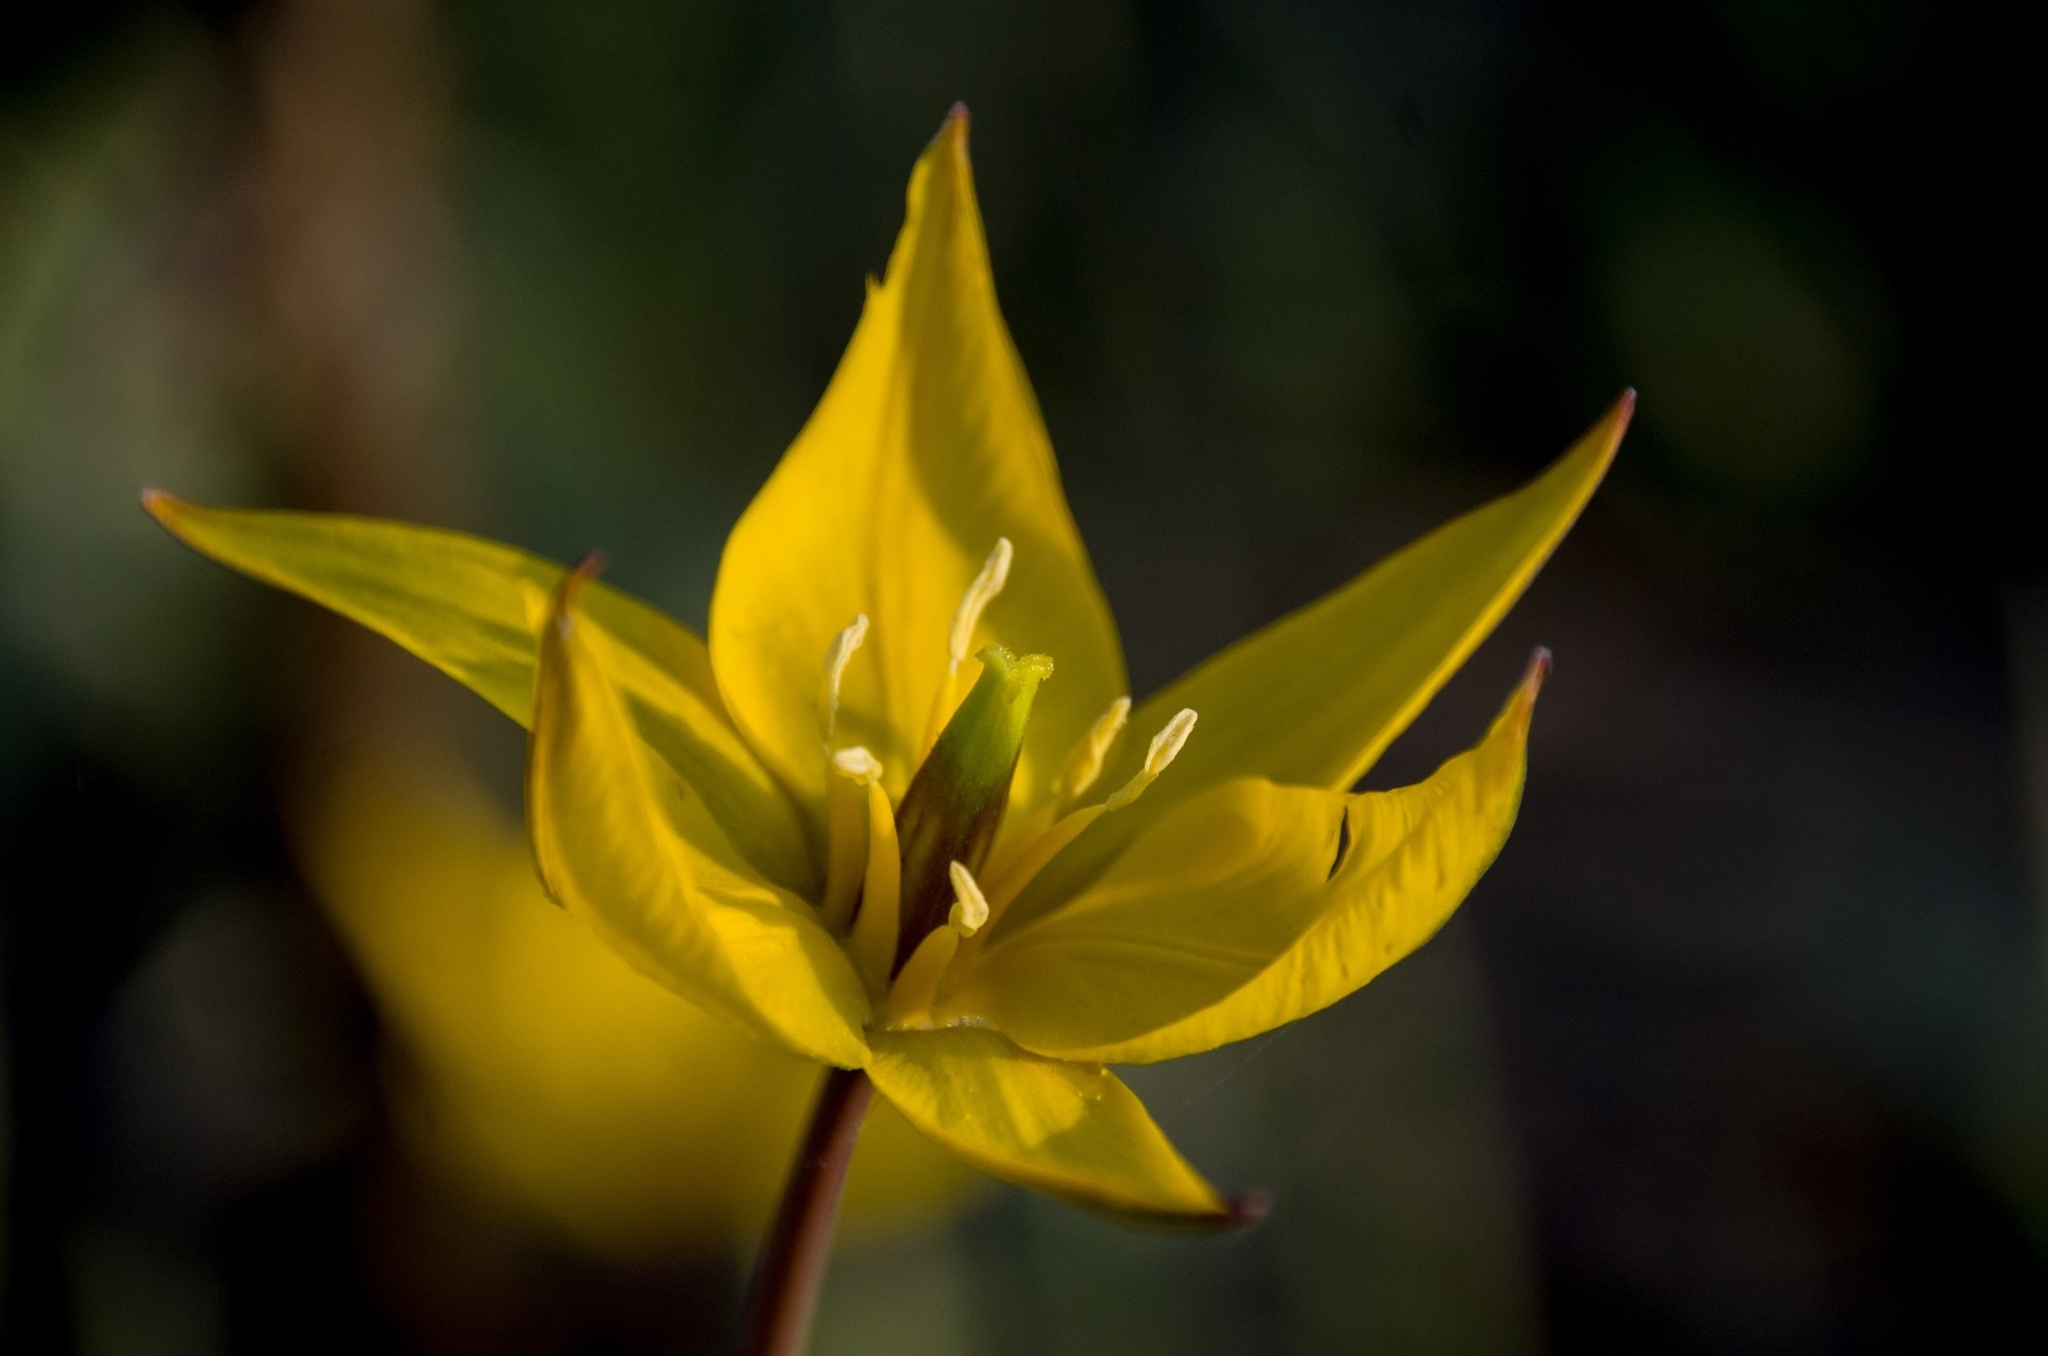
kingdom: Plantae
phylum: Tracheophyta
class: Liliopsida
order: Liliales
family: Liliaceae
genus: Tulipa
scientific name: Tulipa sylvestris
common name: Wild tulip
